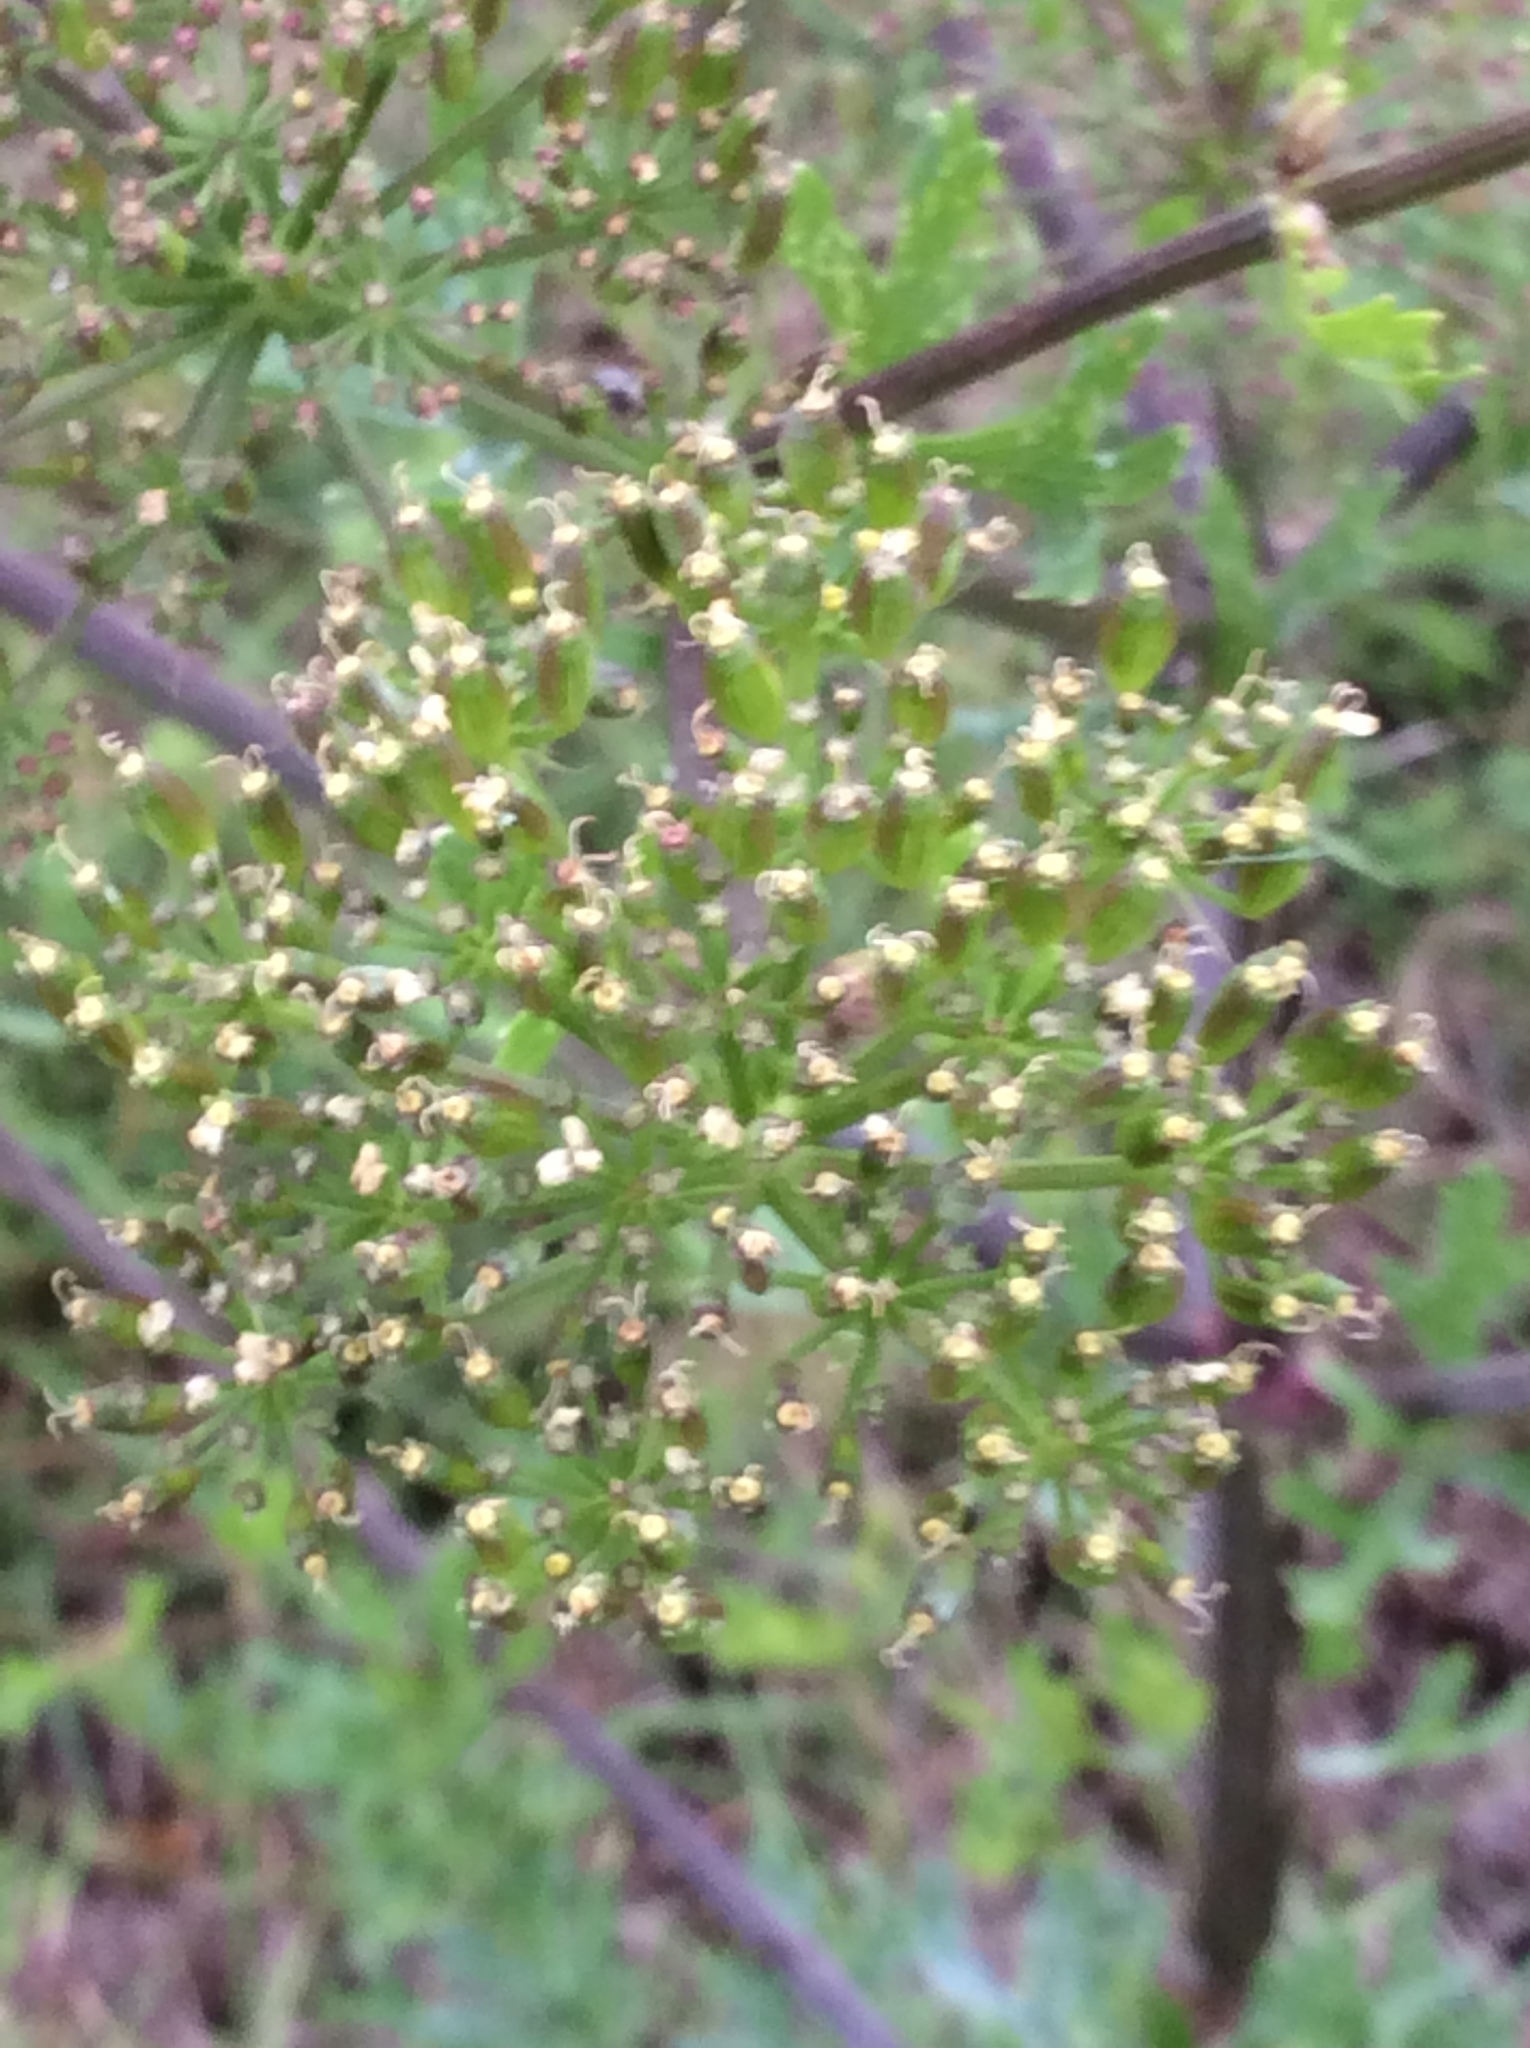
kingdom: Plantae
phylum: Tracheophyta
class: Magnoliopsida
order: Apiales
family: Apiaceae
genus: Polytaenia
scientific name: Polytaenia texana
